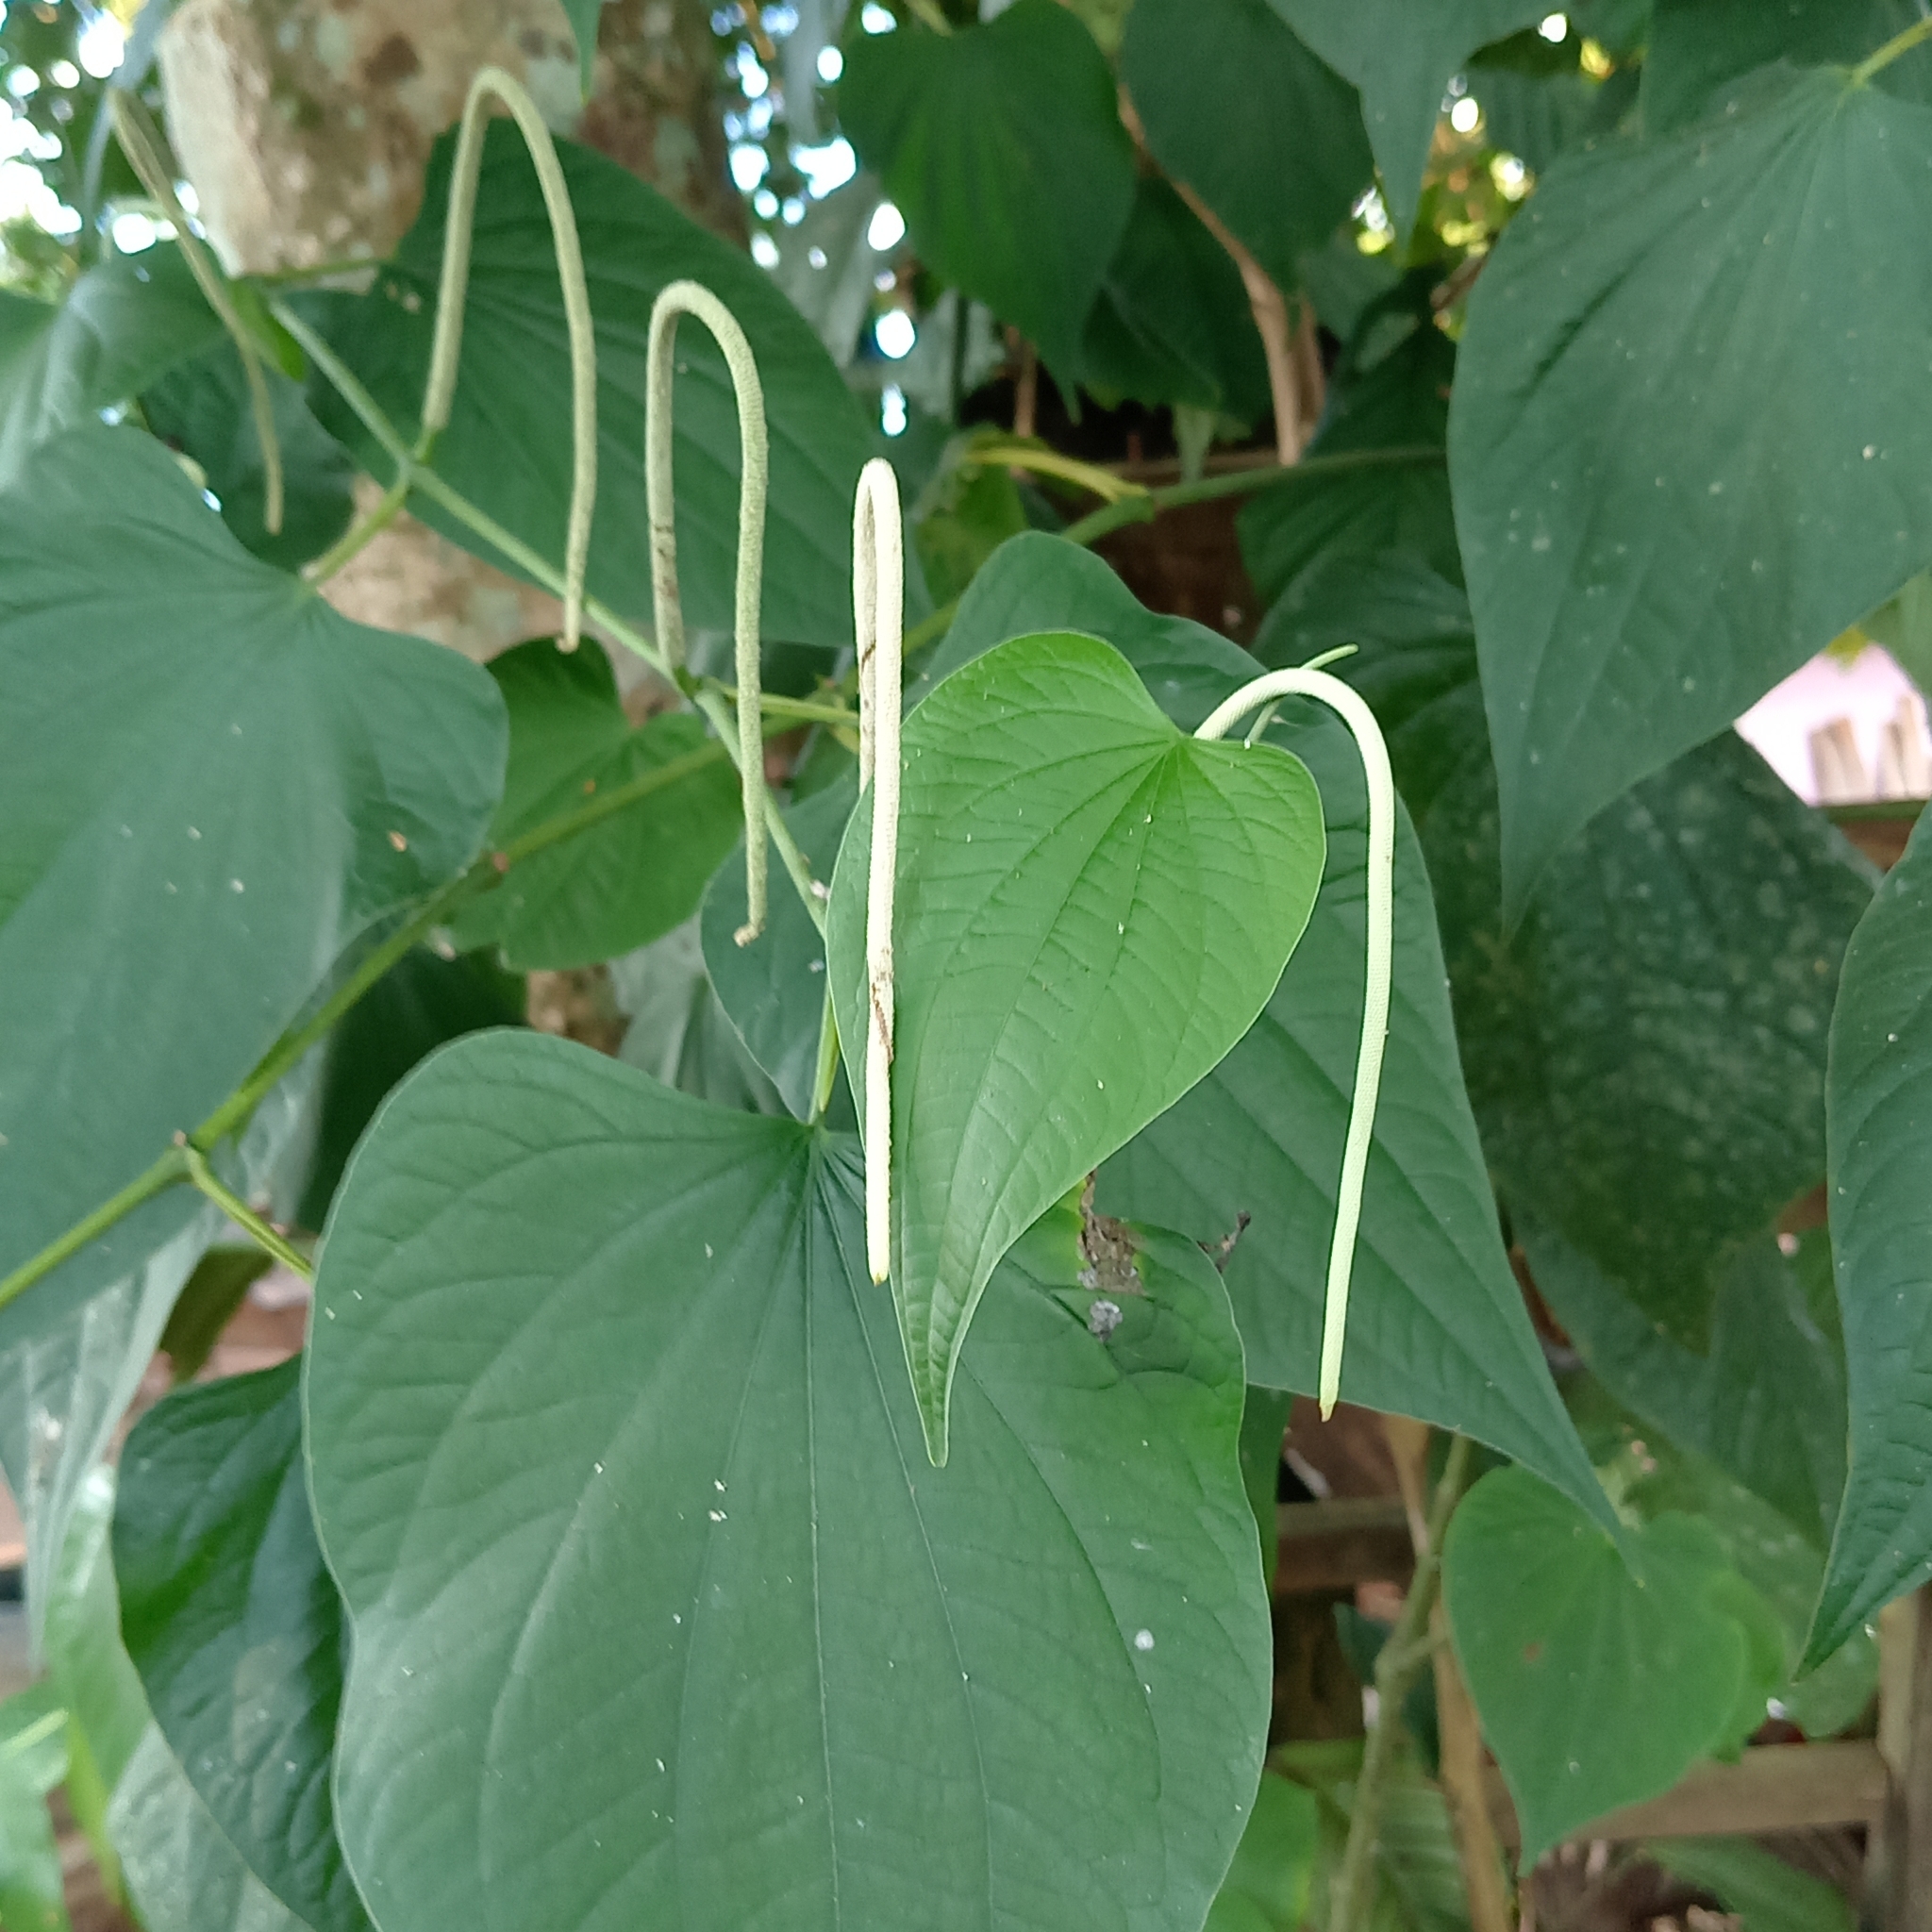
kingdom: Plantae
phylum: Tracheophyta
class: Magnoliopsida
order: Piperales
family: Piperaceae
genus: Piper
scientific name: Piper marginatum
